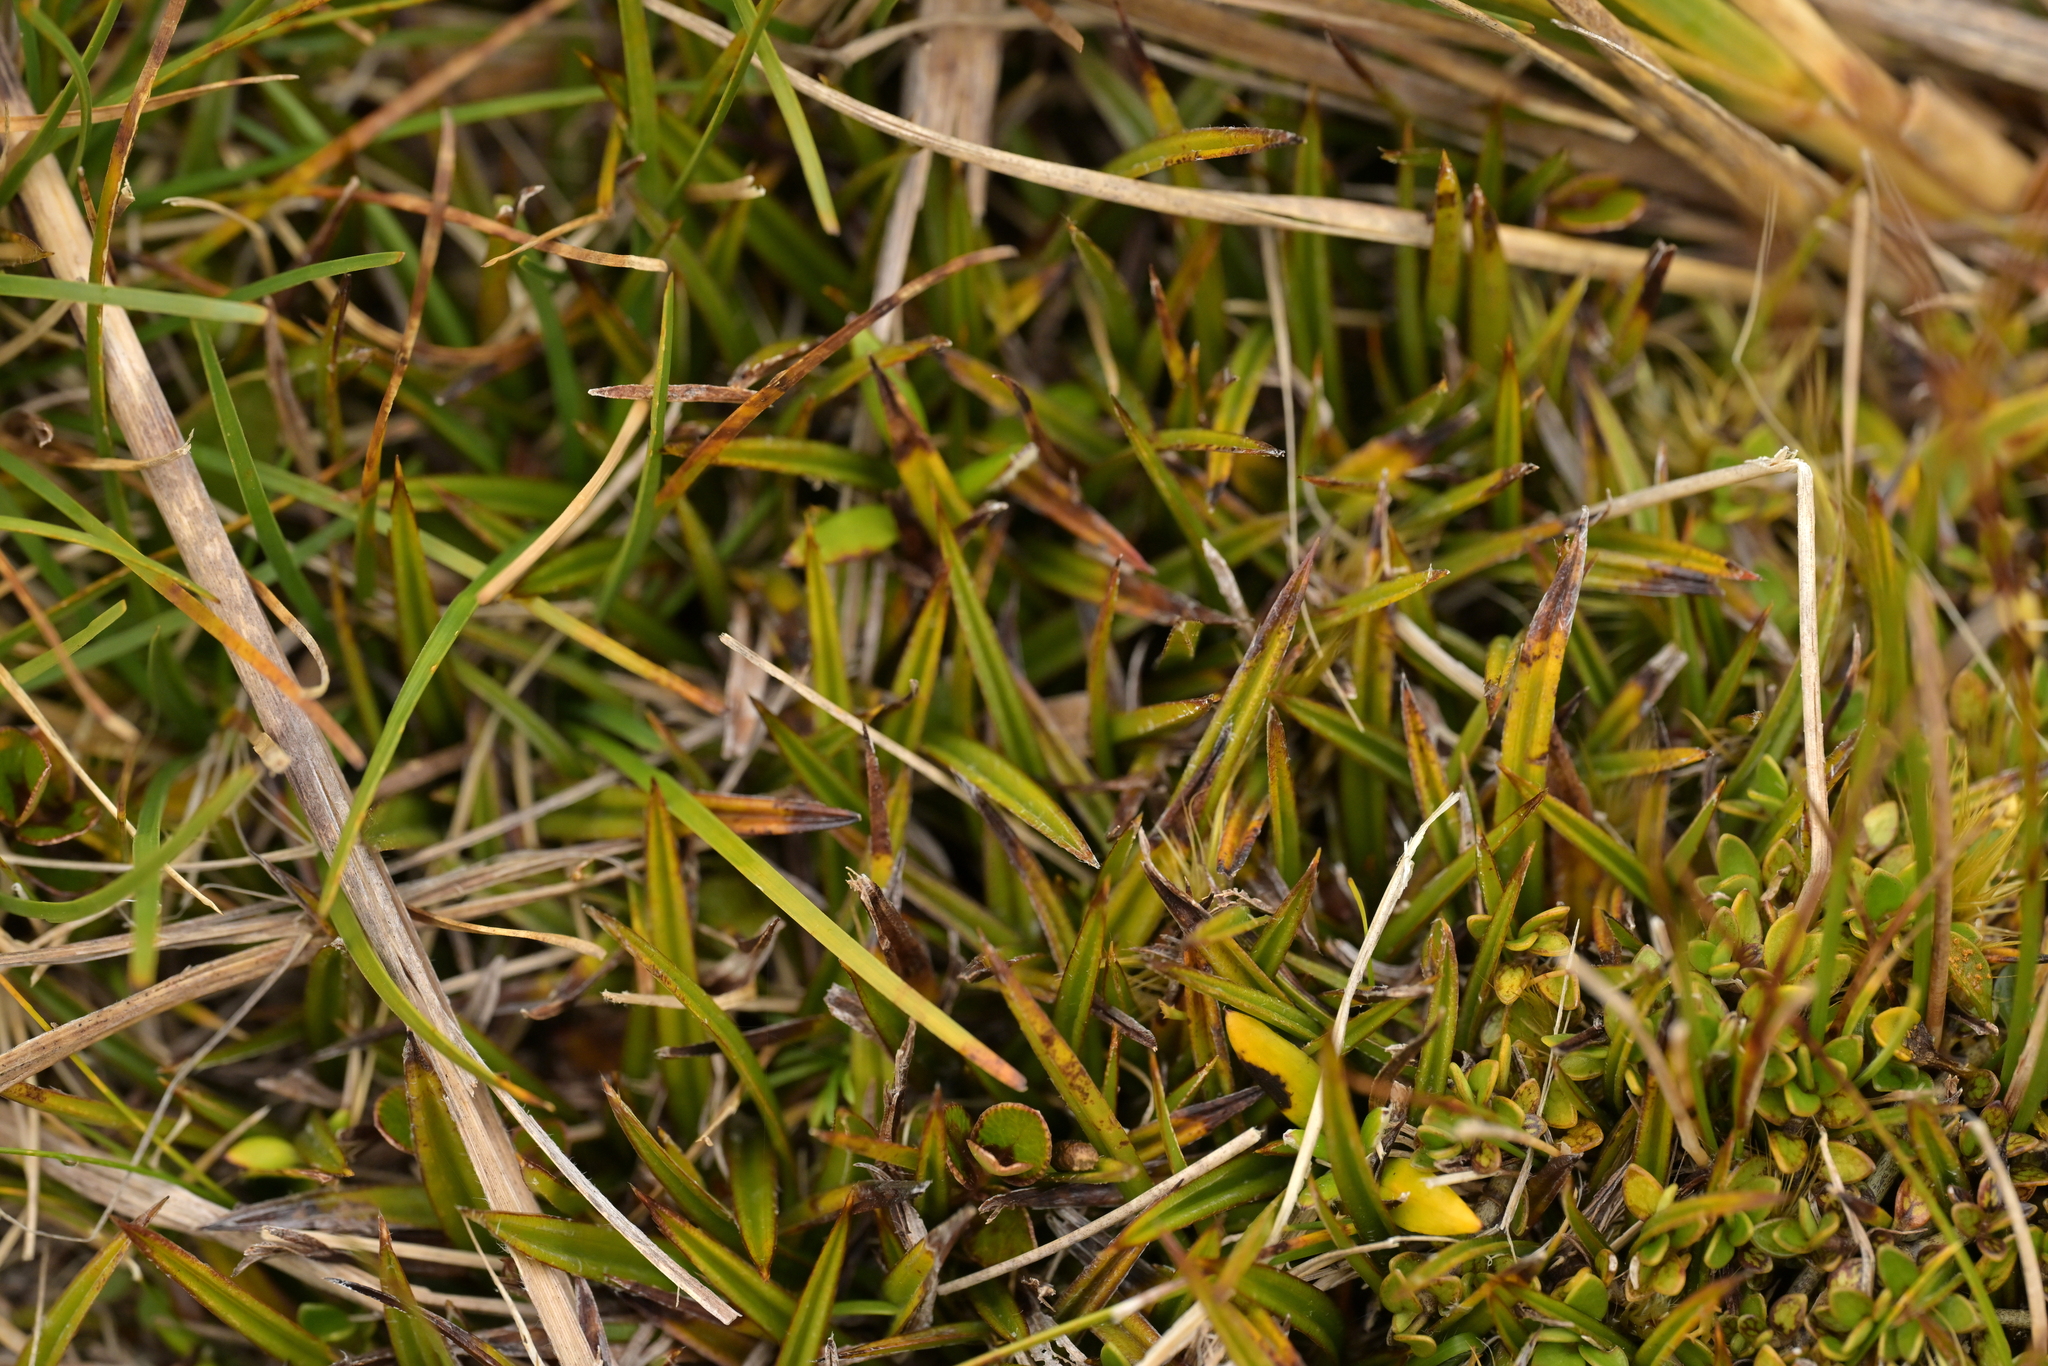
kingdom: Plantae
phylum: Tracheophyta
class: Liliopsida
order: Asparagales
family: Asteliaceae
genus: Astelia
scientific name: Astelia linearis
